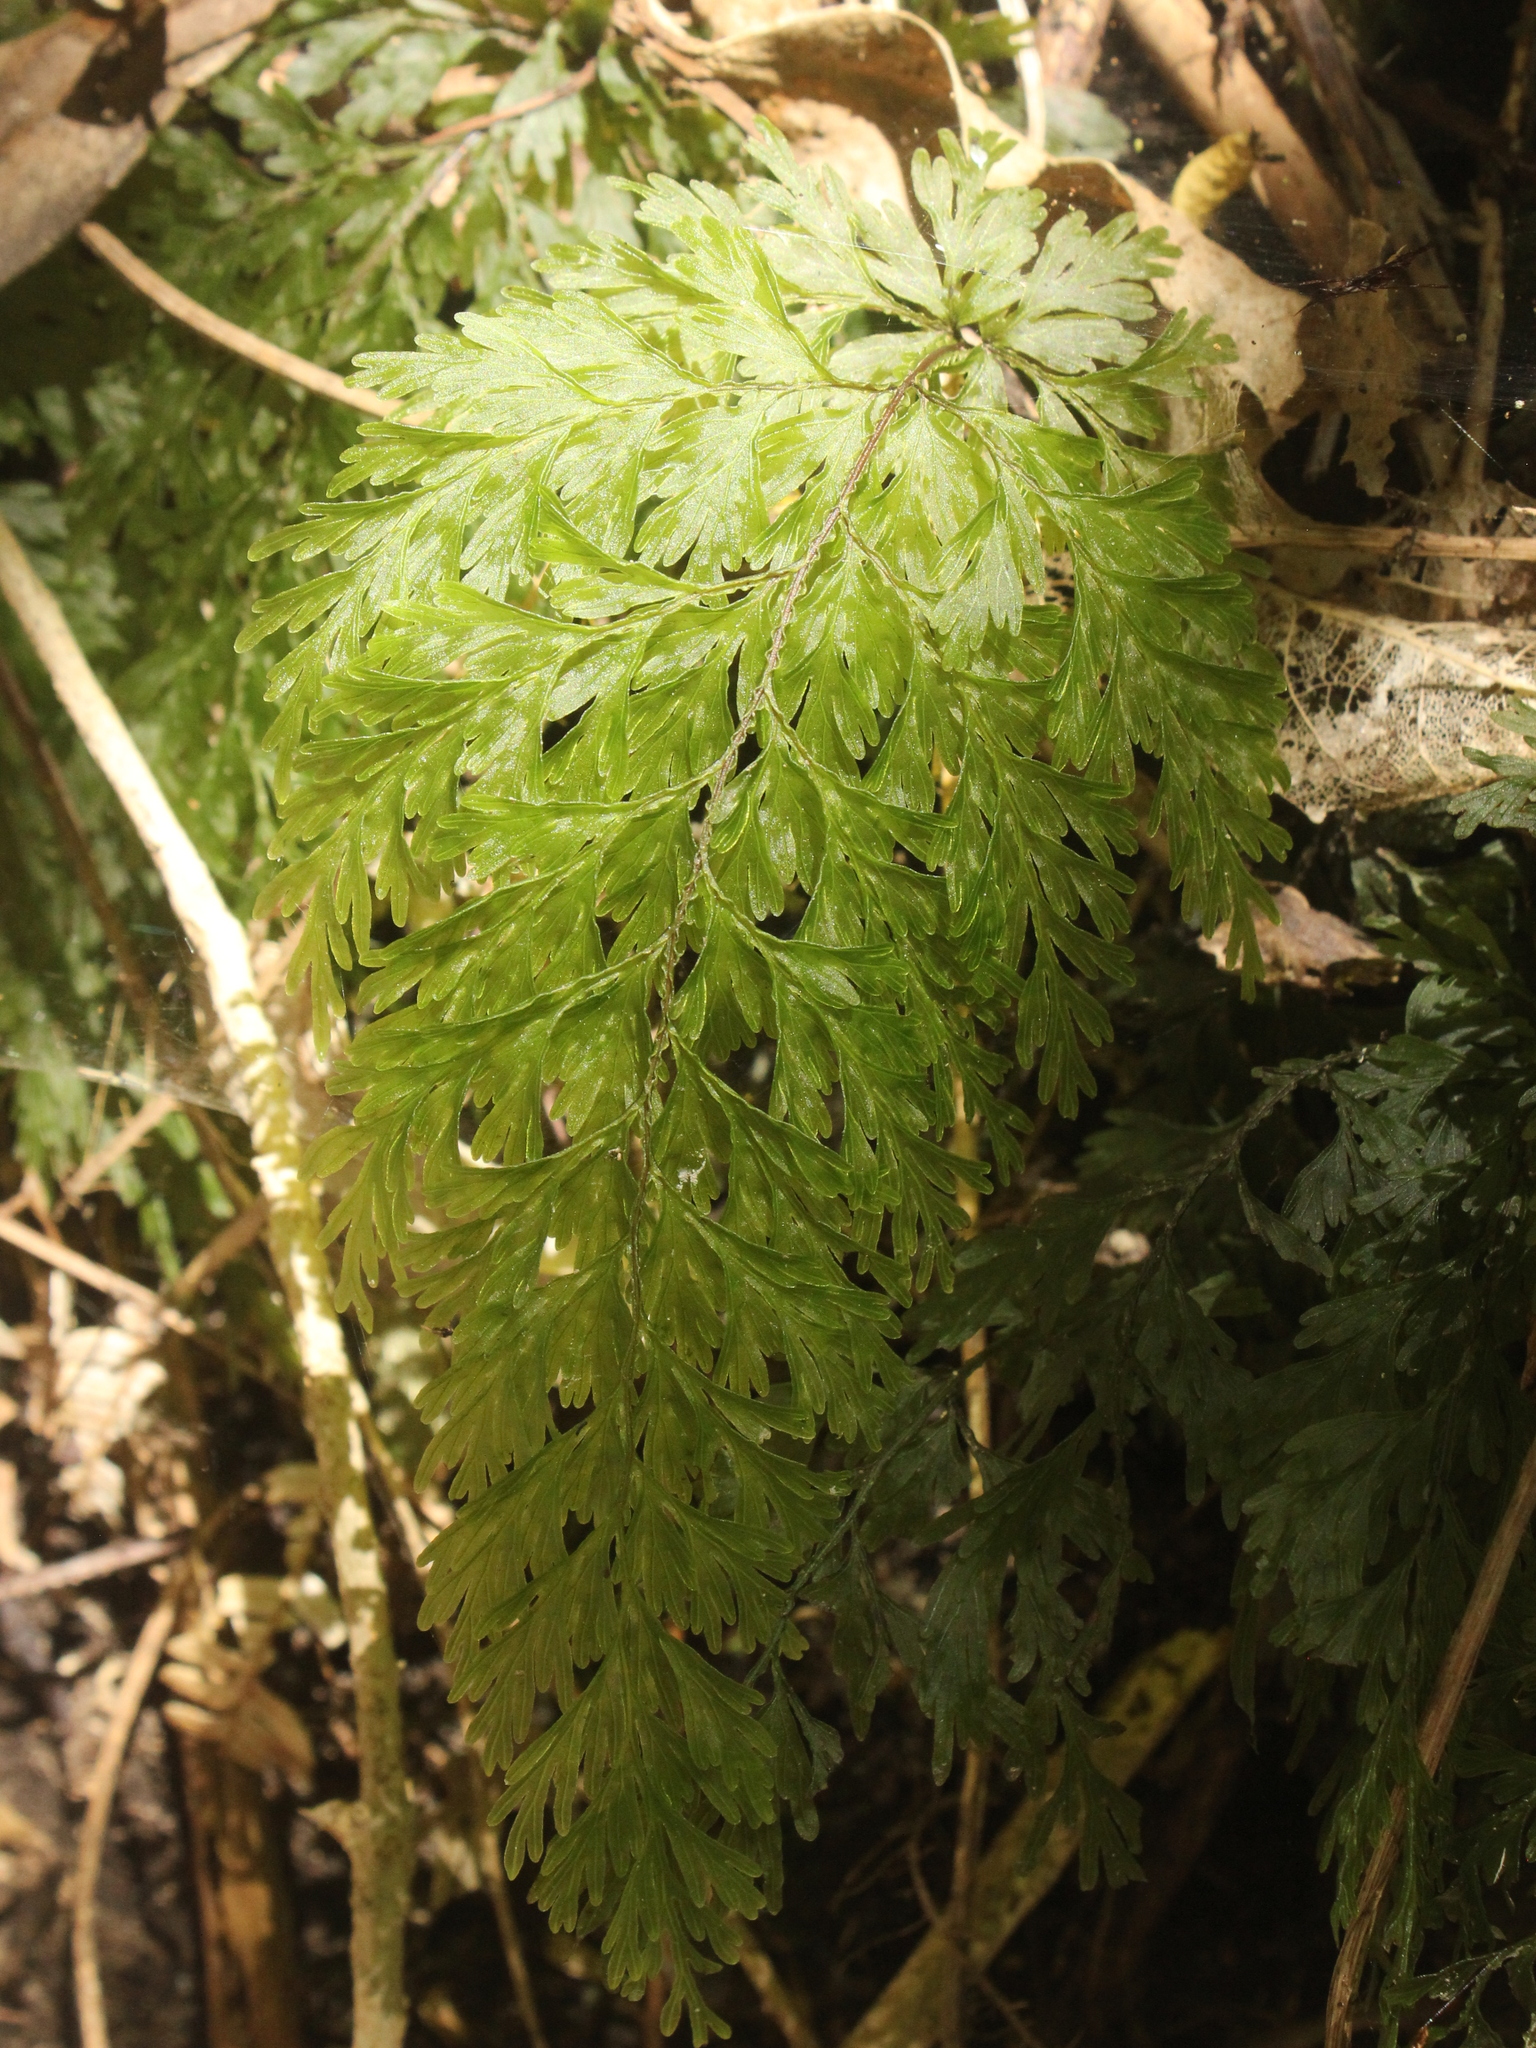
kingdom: Plantae
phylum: Tracheophyta
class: Polypodiopsida
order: Hymenophyllales
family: Hymenophyllaceae
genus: Hymenophyllum
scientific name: Hymenophyllum demissum
